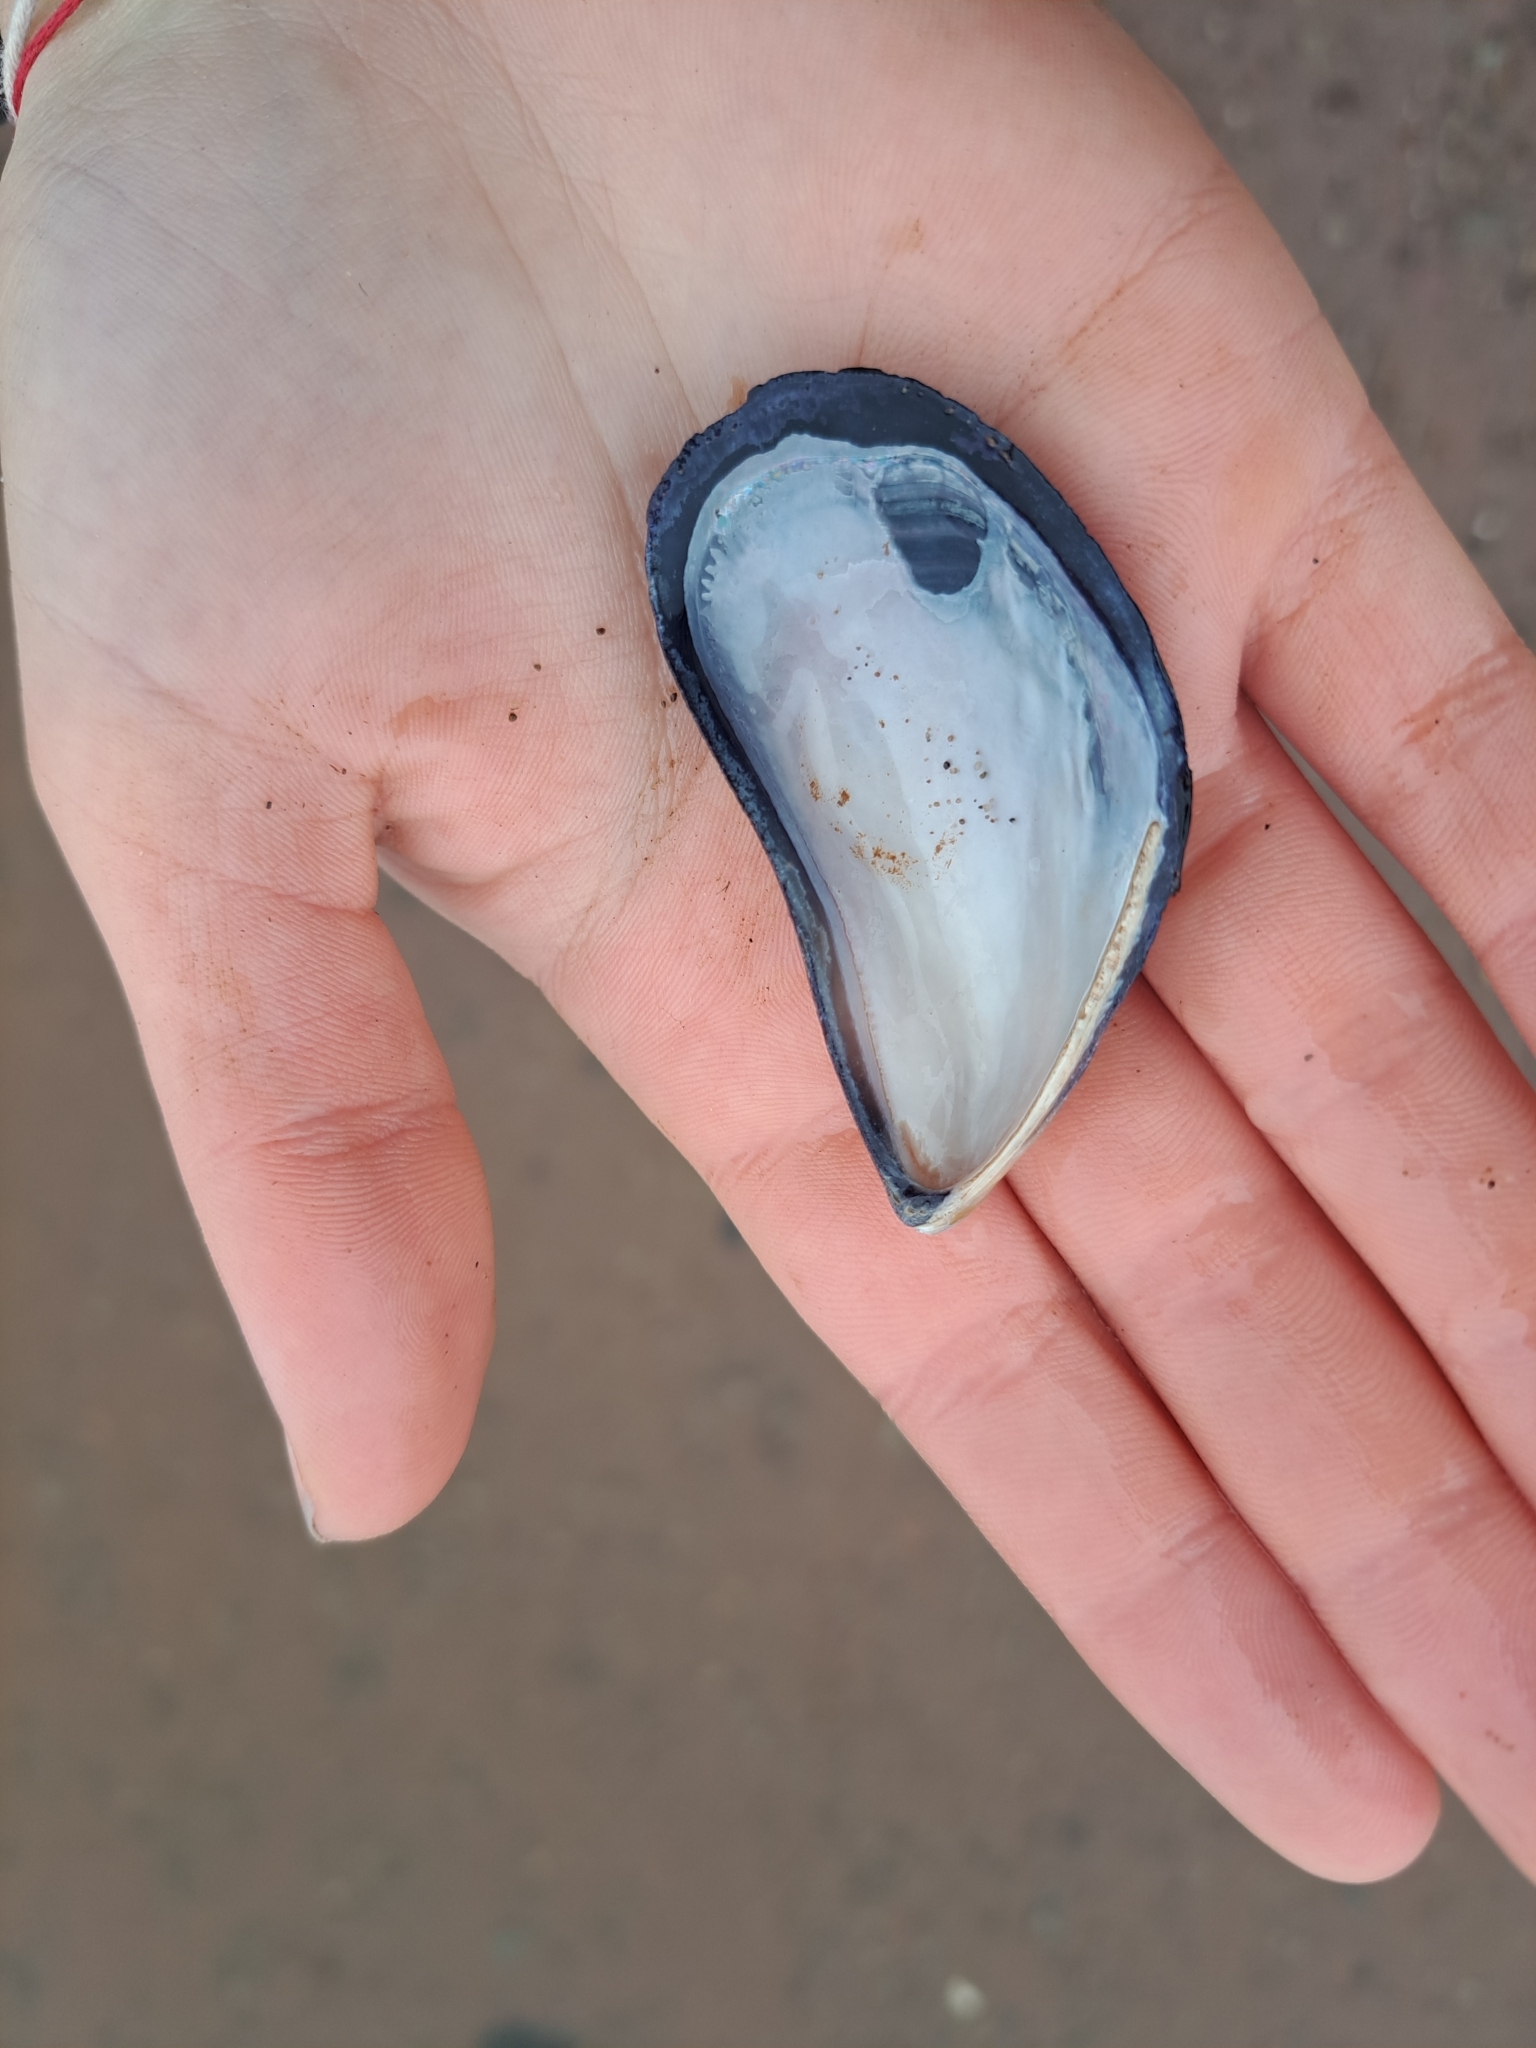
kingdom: Animalia
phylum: Mollusca
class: Bivalvia
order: Mytilida
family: Mytilidae
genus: Mytilus
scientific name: Mytilus
